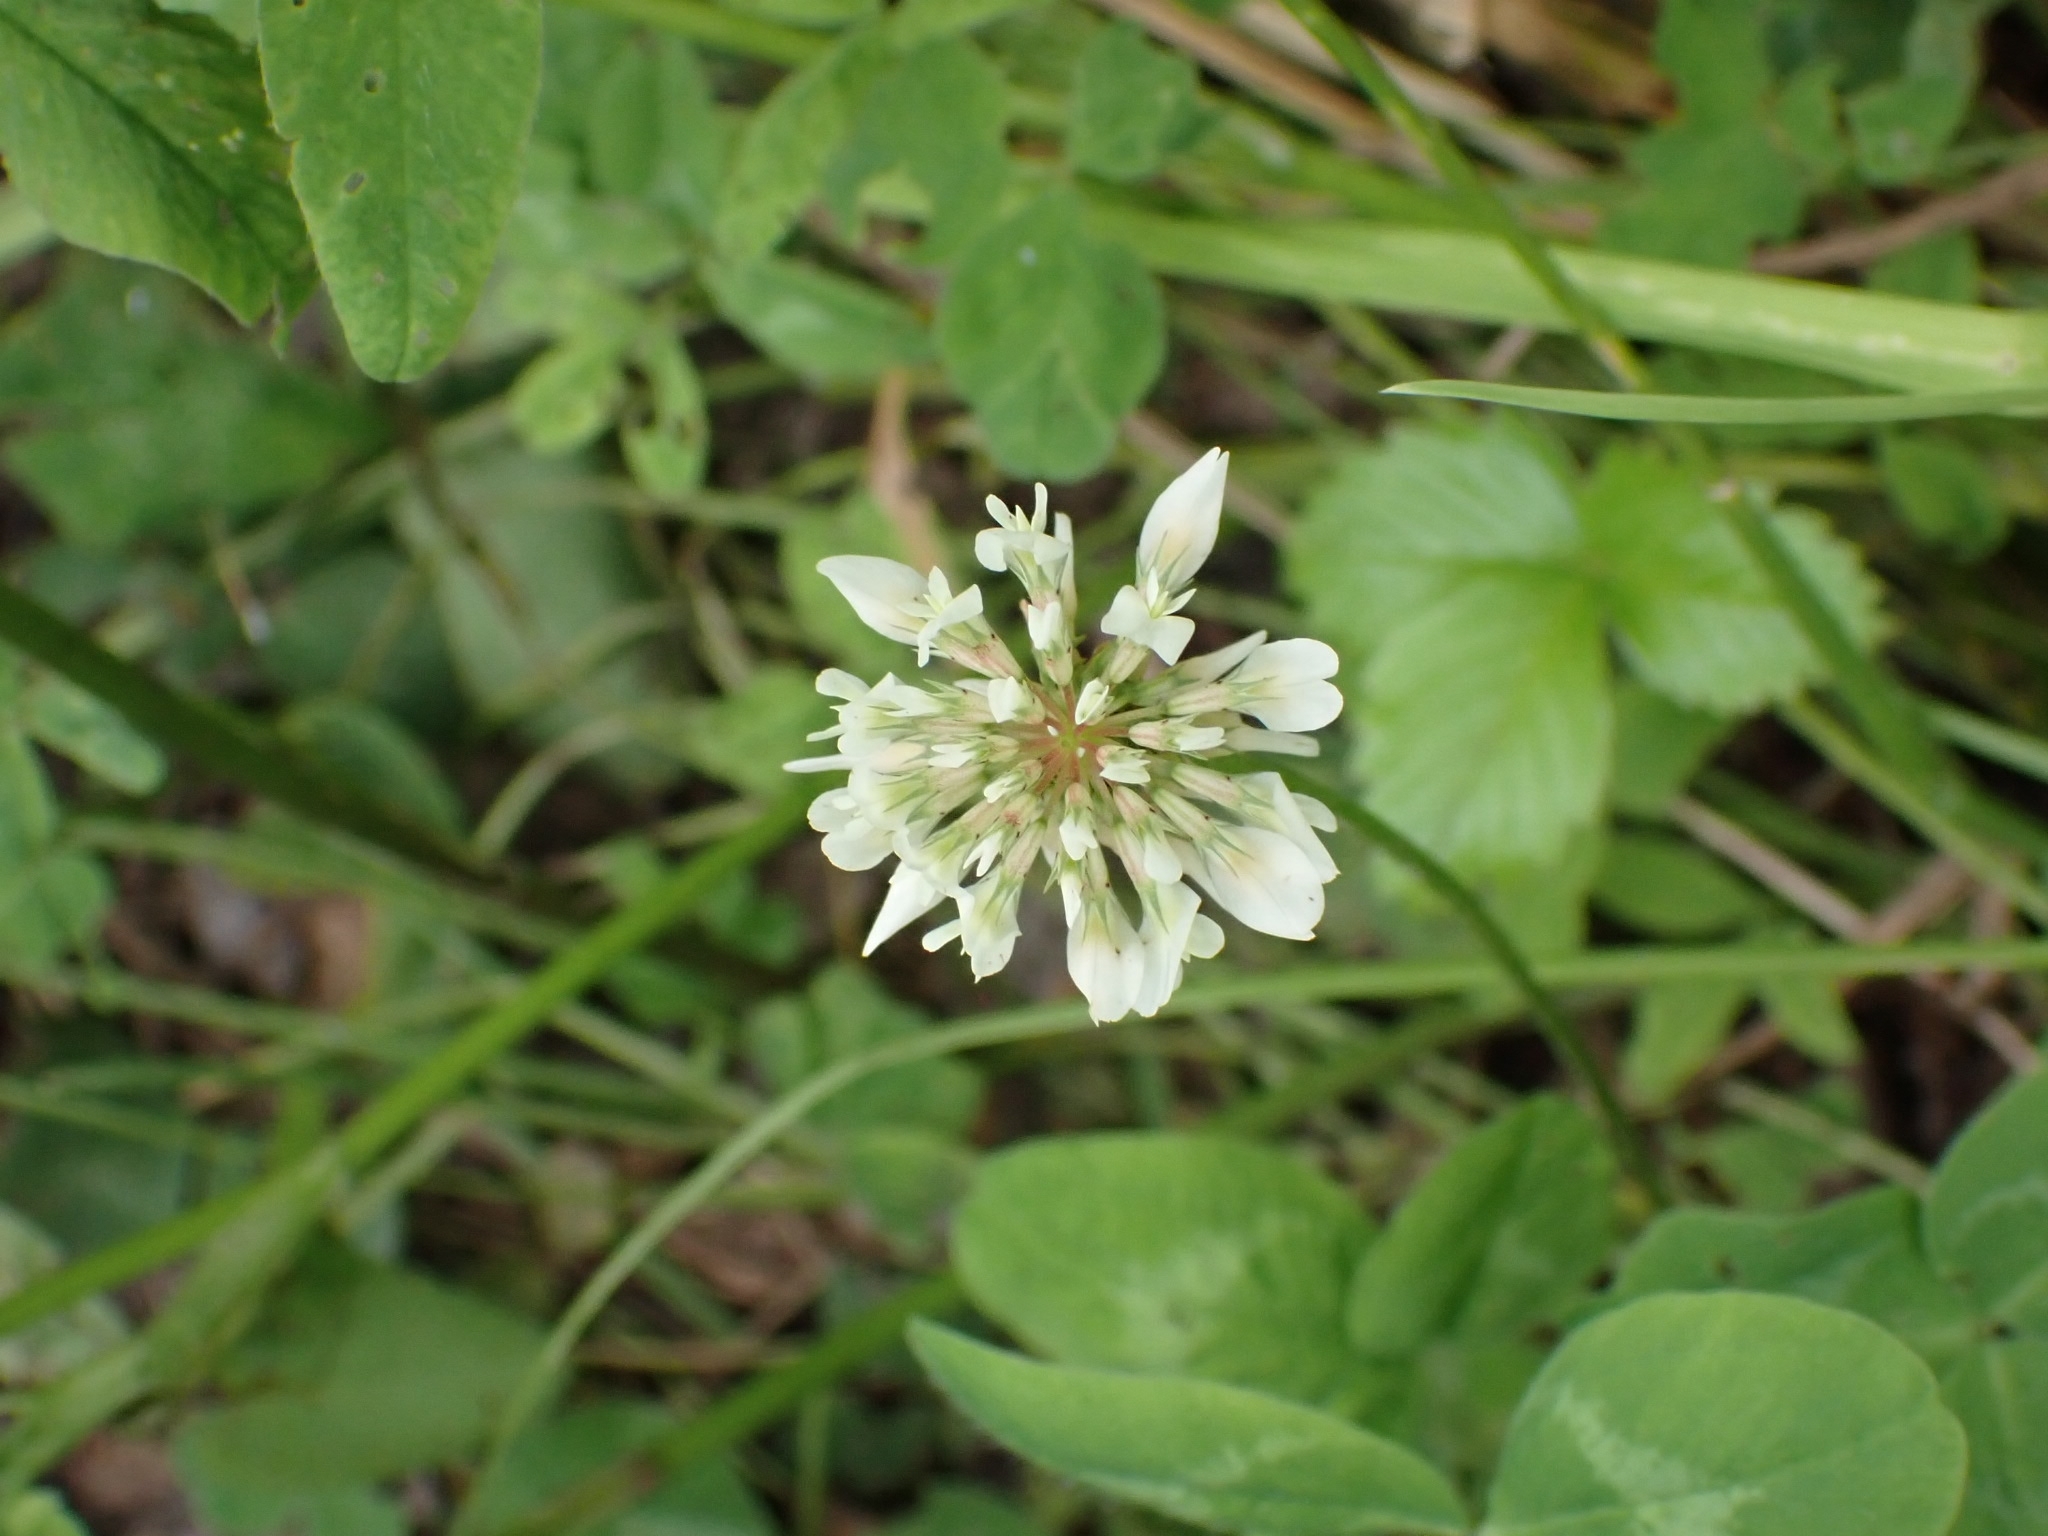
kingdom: Plantae
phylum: Tracheophyta
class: Magnoliopsida
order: Fabales
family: Fabaceae
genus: Trifolium
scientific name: Trifolium repens
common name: White clover
